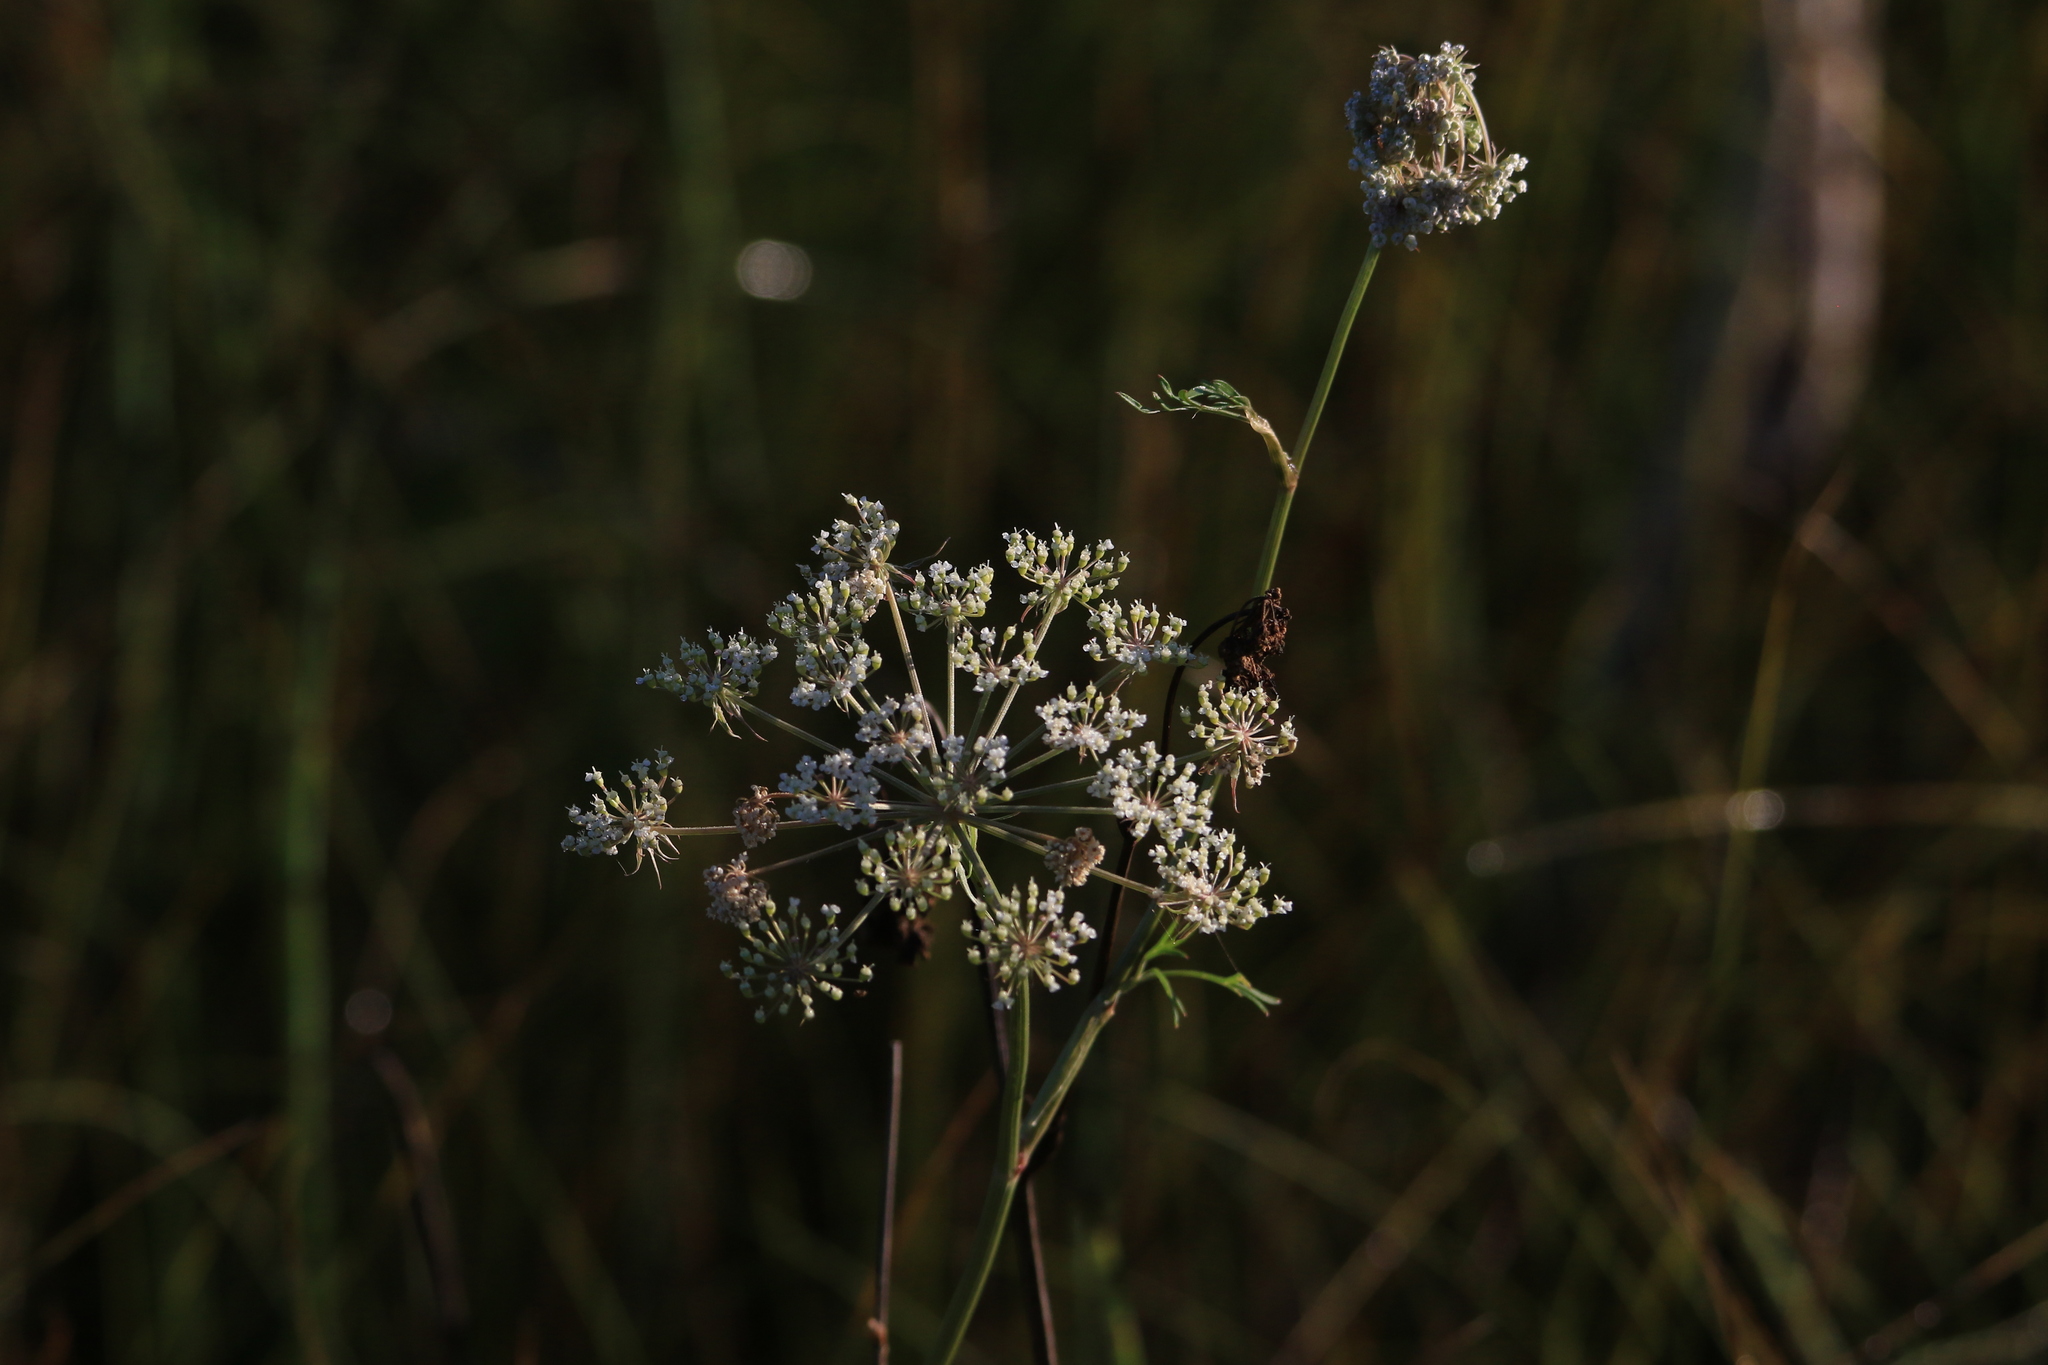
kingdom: Plantae
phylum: Tracheophyta
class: Magnoliopsida
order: Apiales
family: Apiaceae
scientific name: Apiaceae
